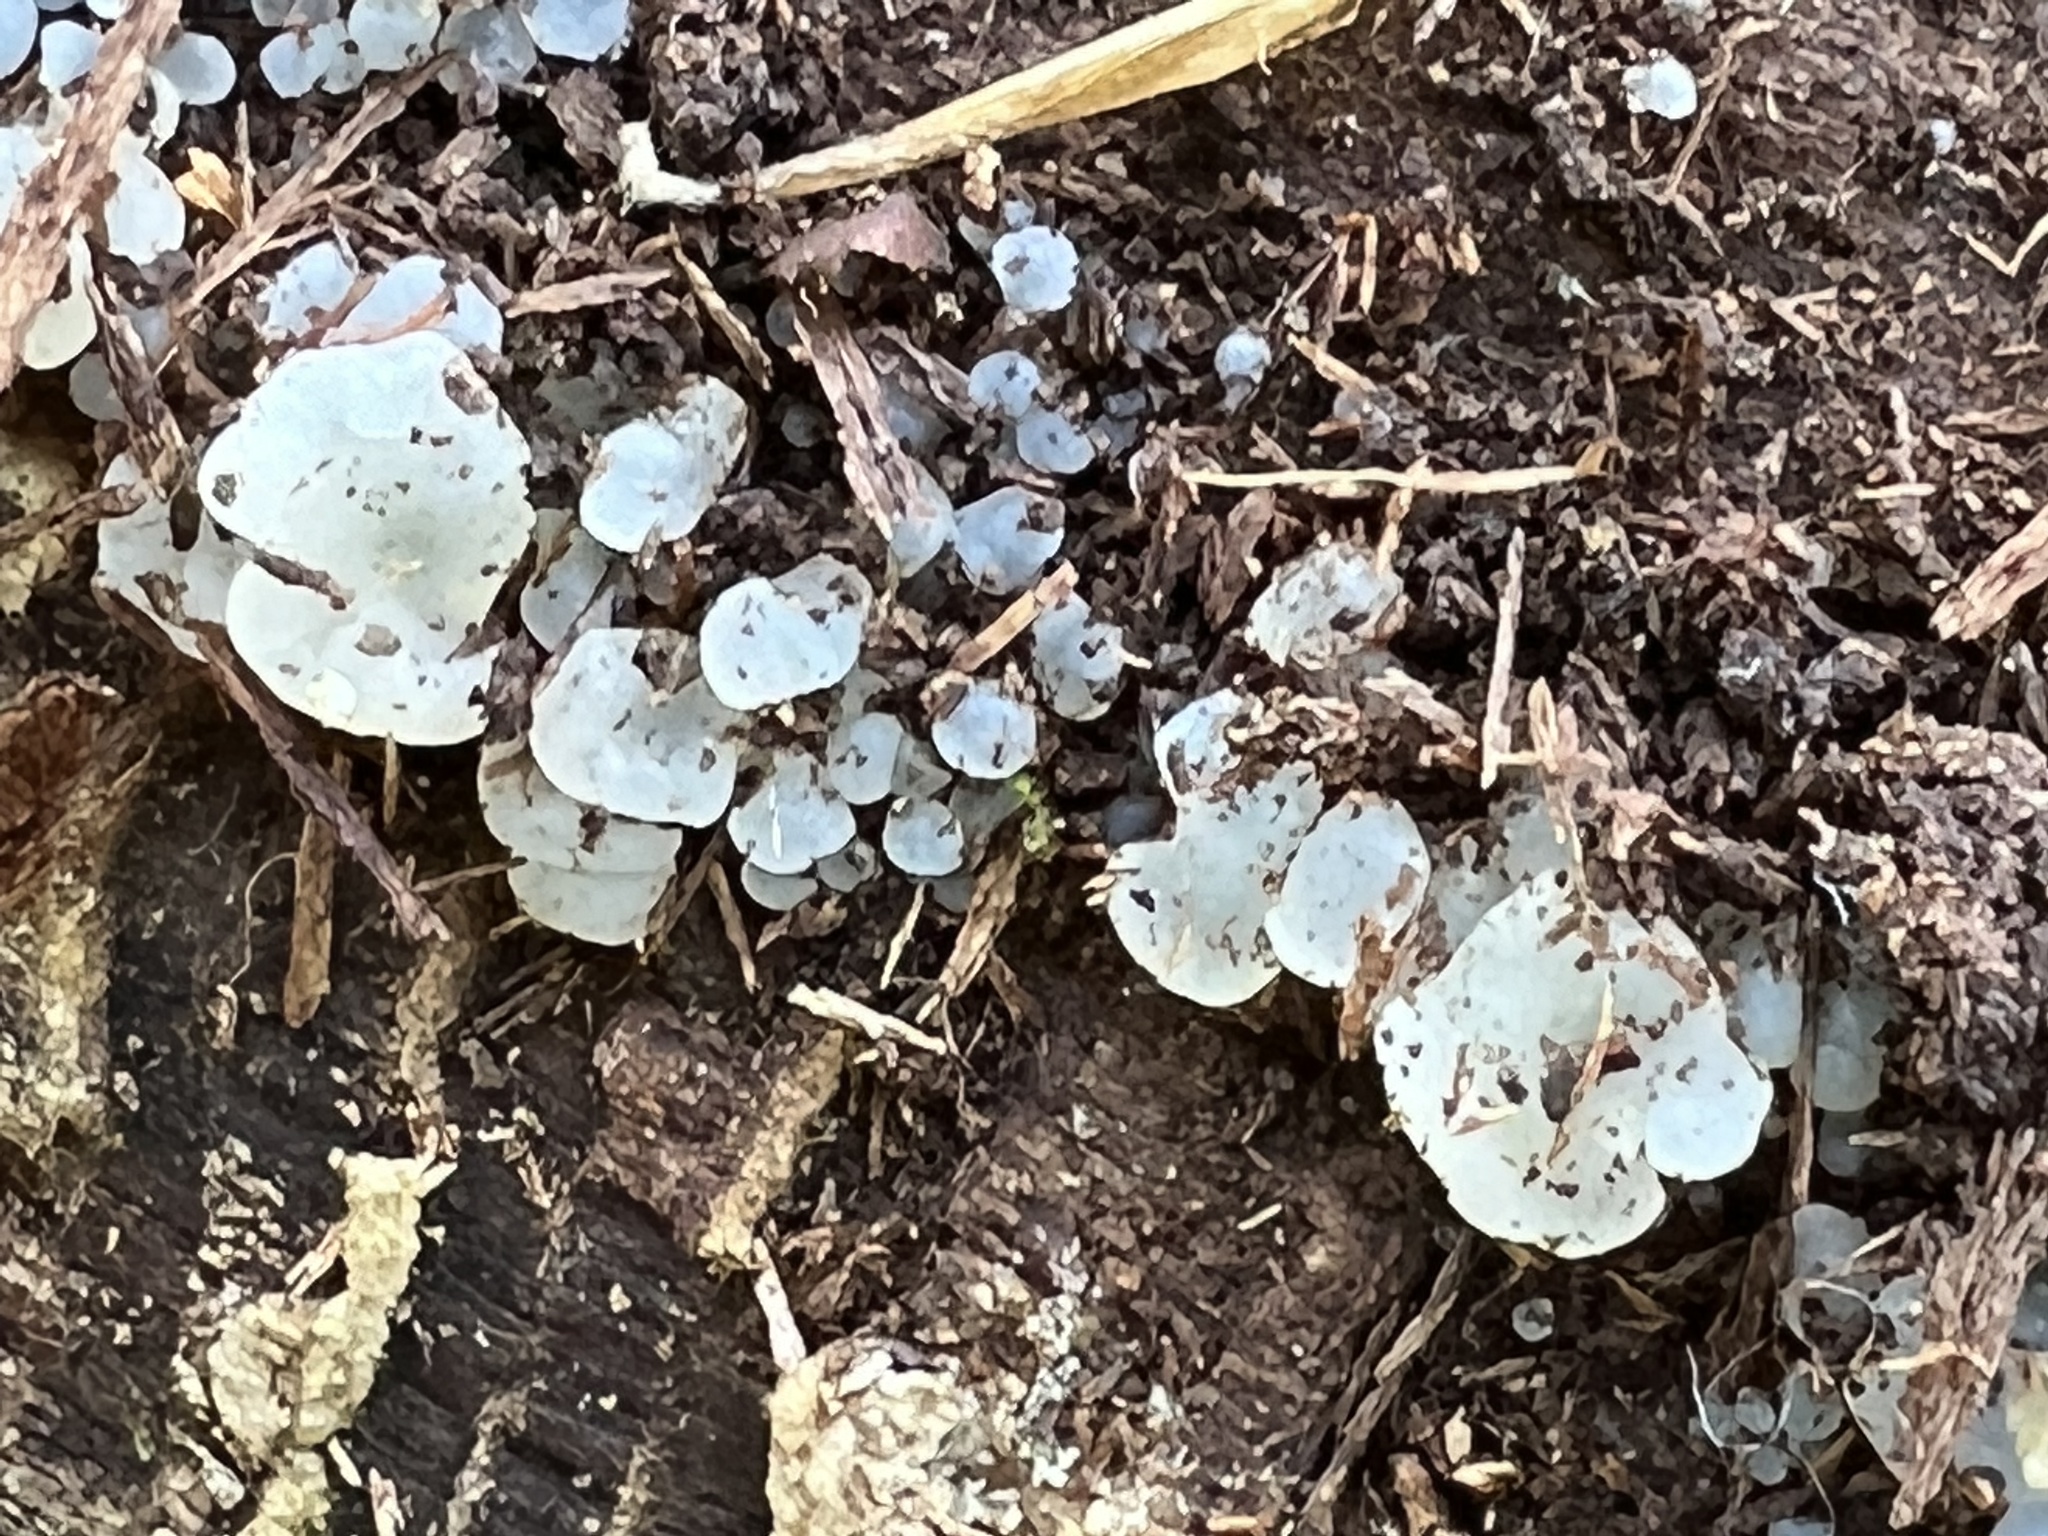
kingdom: Fungi
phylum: Basidiomycota
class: Agaricomycetes
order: Auriculariales
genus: Ductifera
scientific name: Ductifera pululahuana
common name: White jelly fungus
